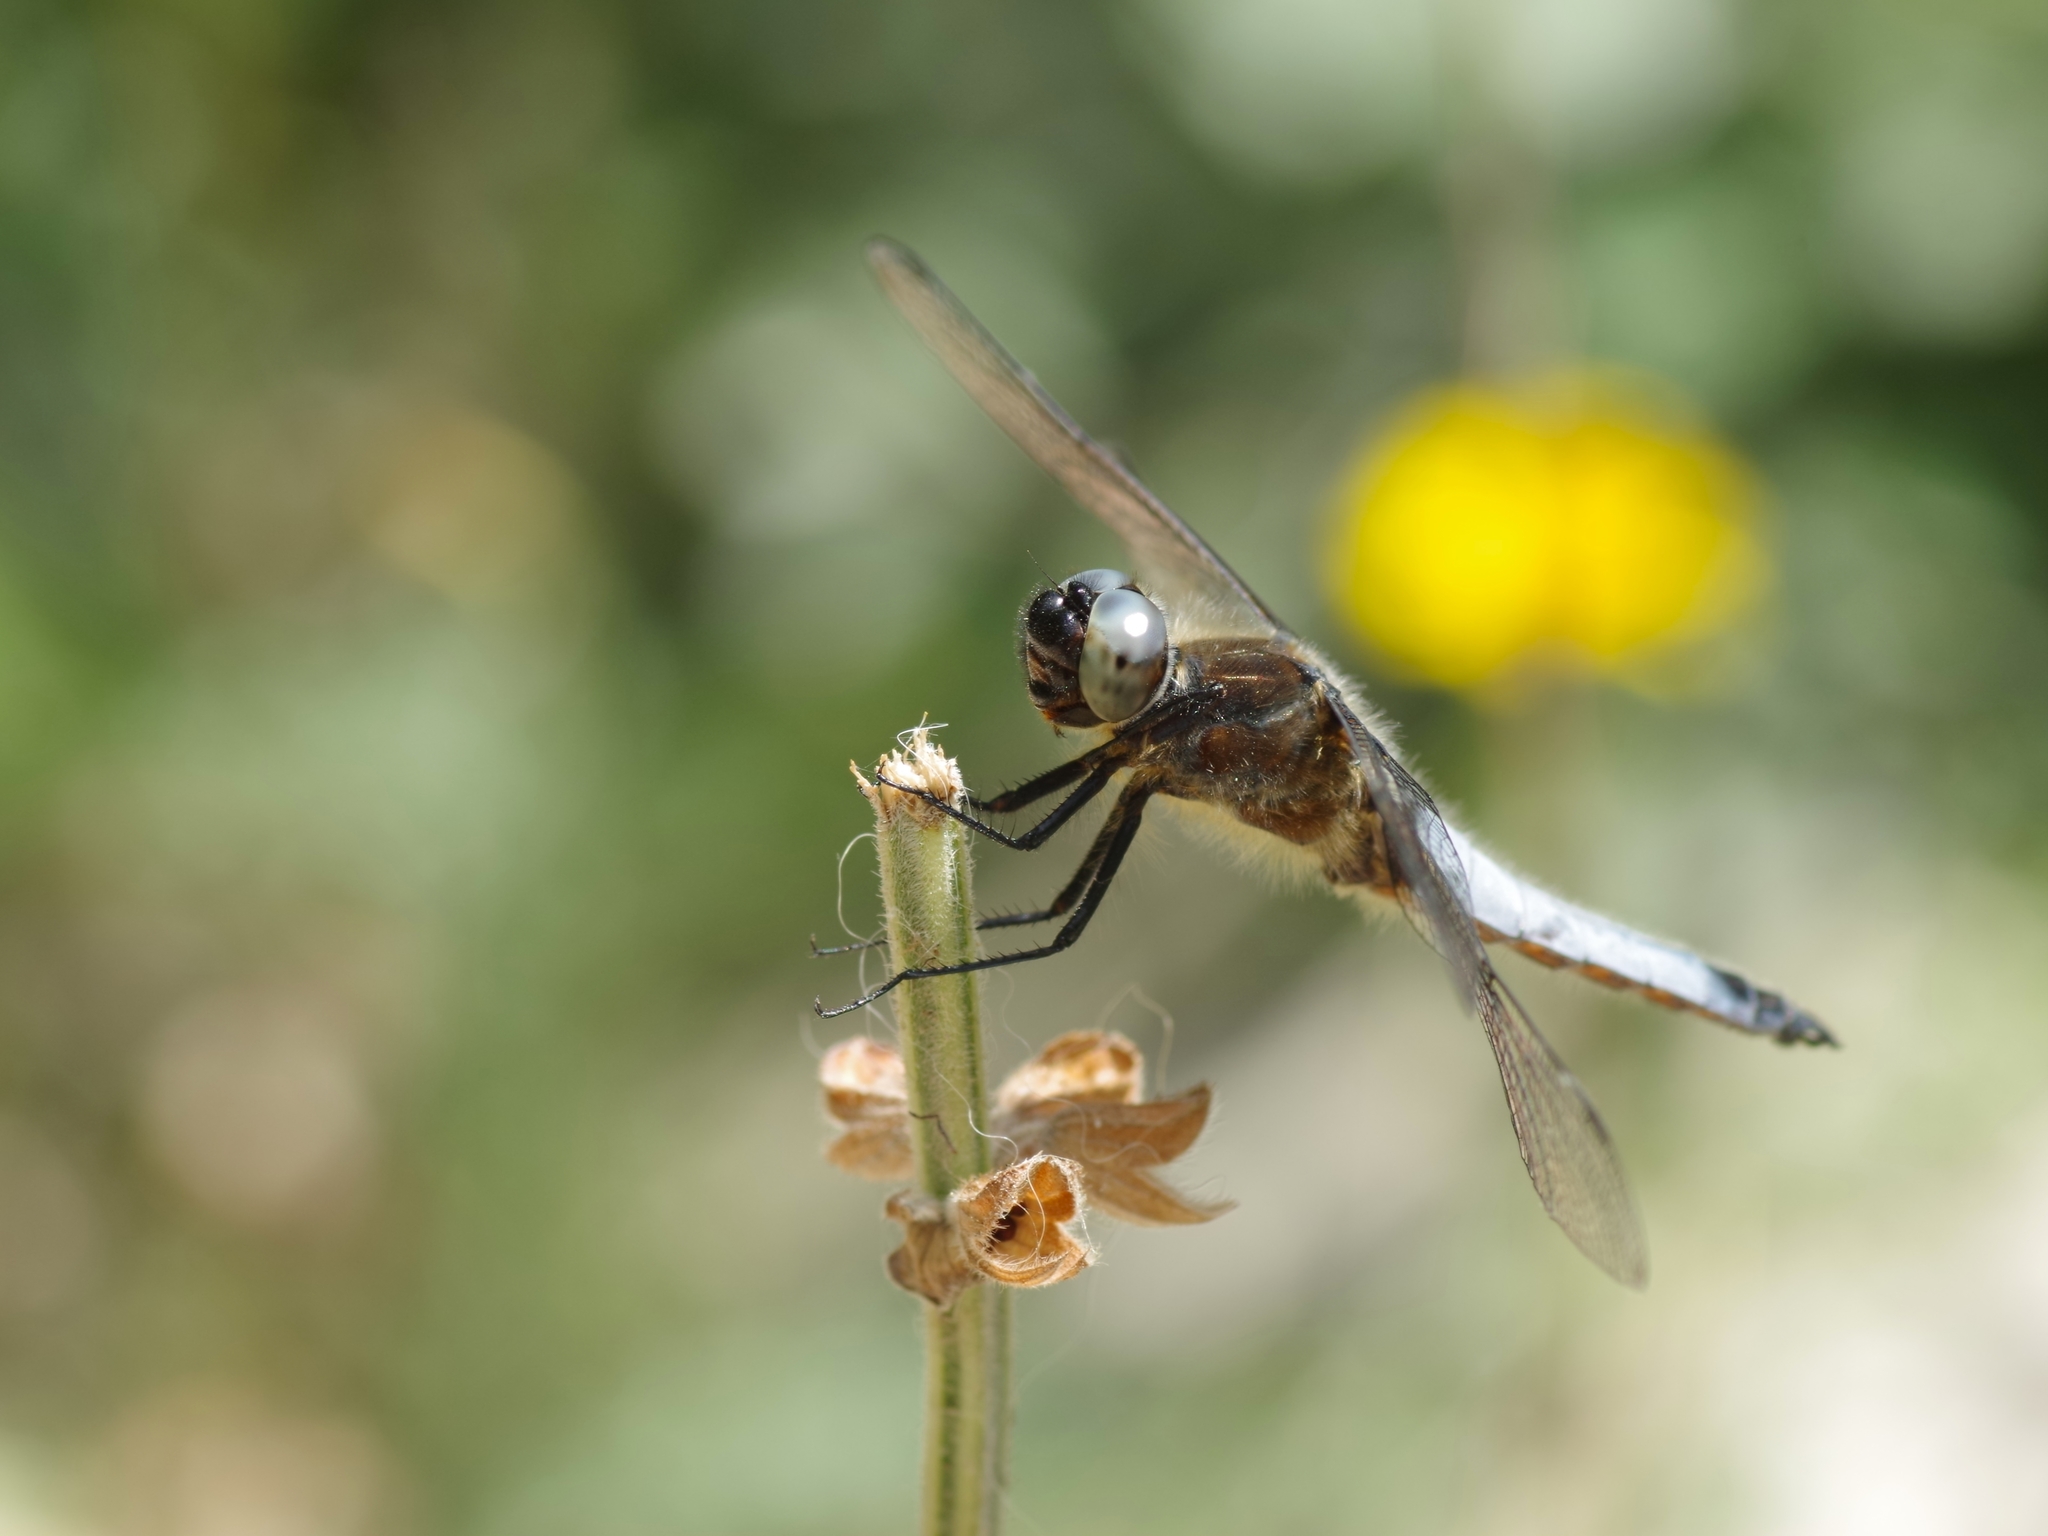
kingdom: Animalia
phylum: Arthropoda
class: Insecta
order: Odonata
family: Libellulidae
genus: Libellula
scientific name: Libellula fulva
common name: Blue chaser
